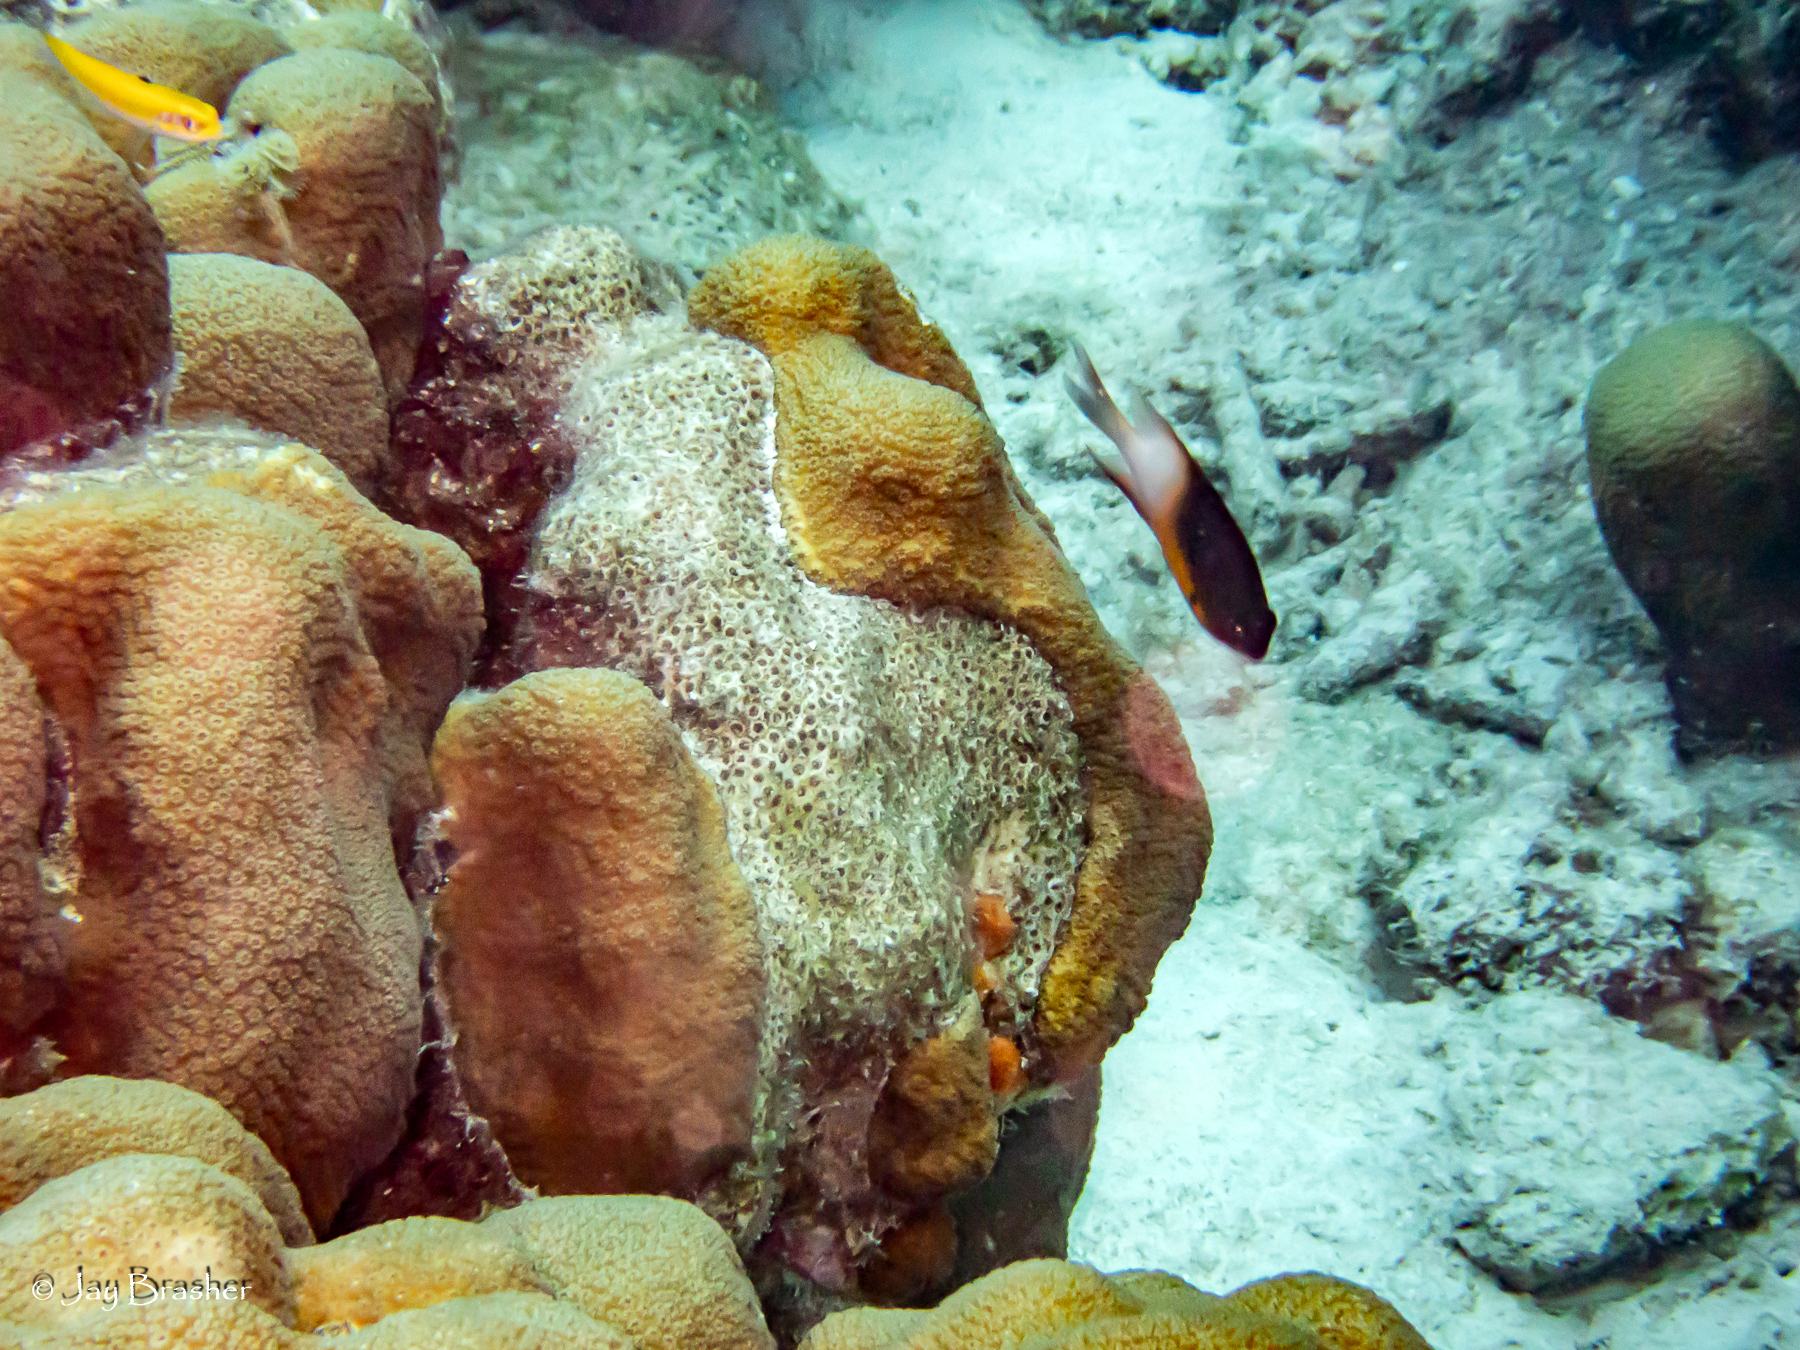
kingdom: Animalia
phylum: Chordata
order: Perciformes
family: Pomacentridae
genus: Stegastes
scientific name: Stegastes partitus
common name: Bicolor damselfish
